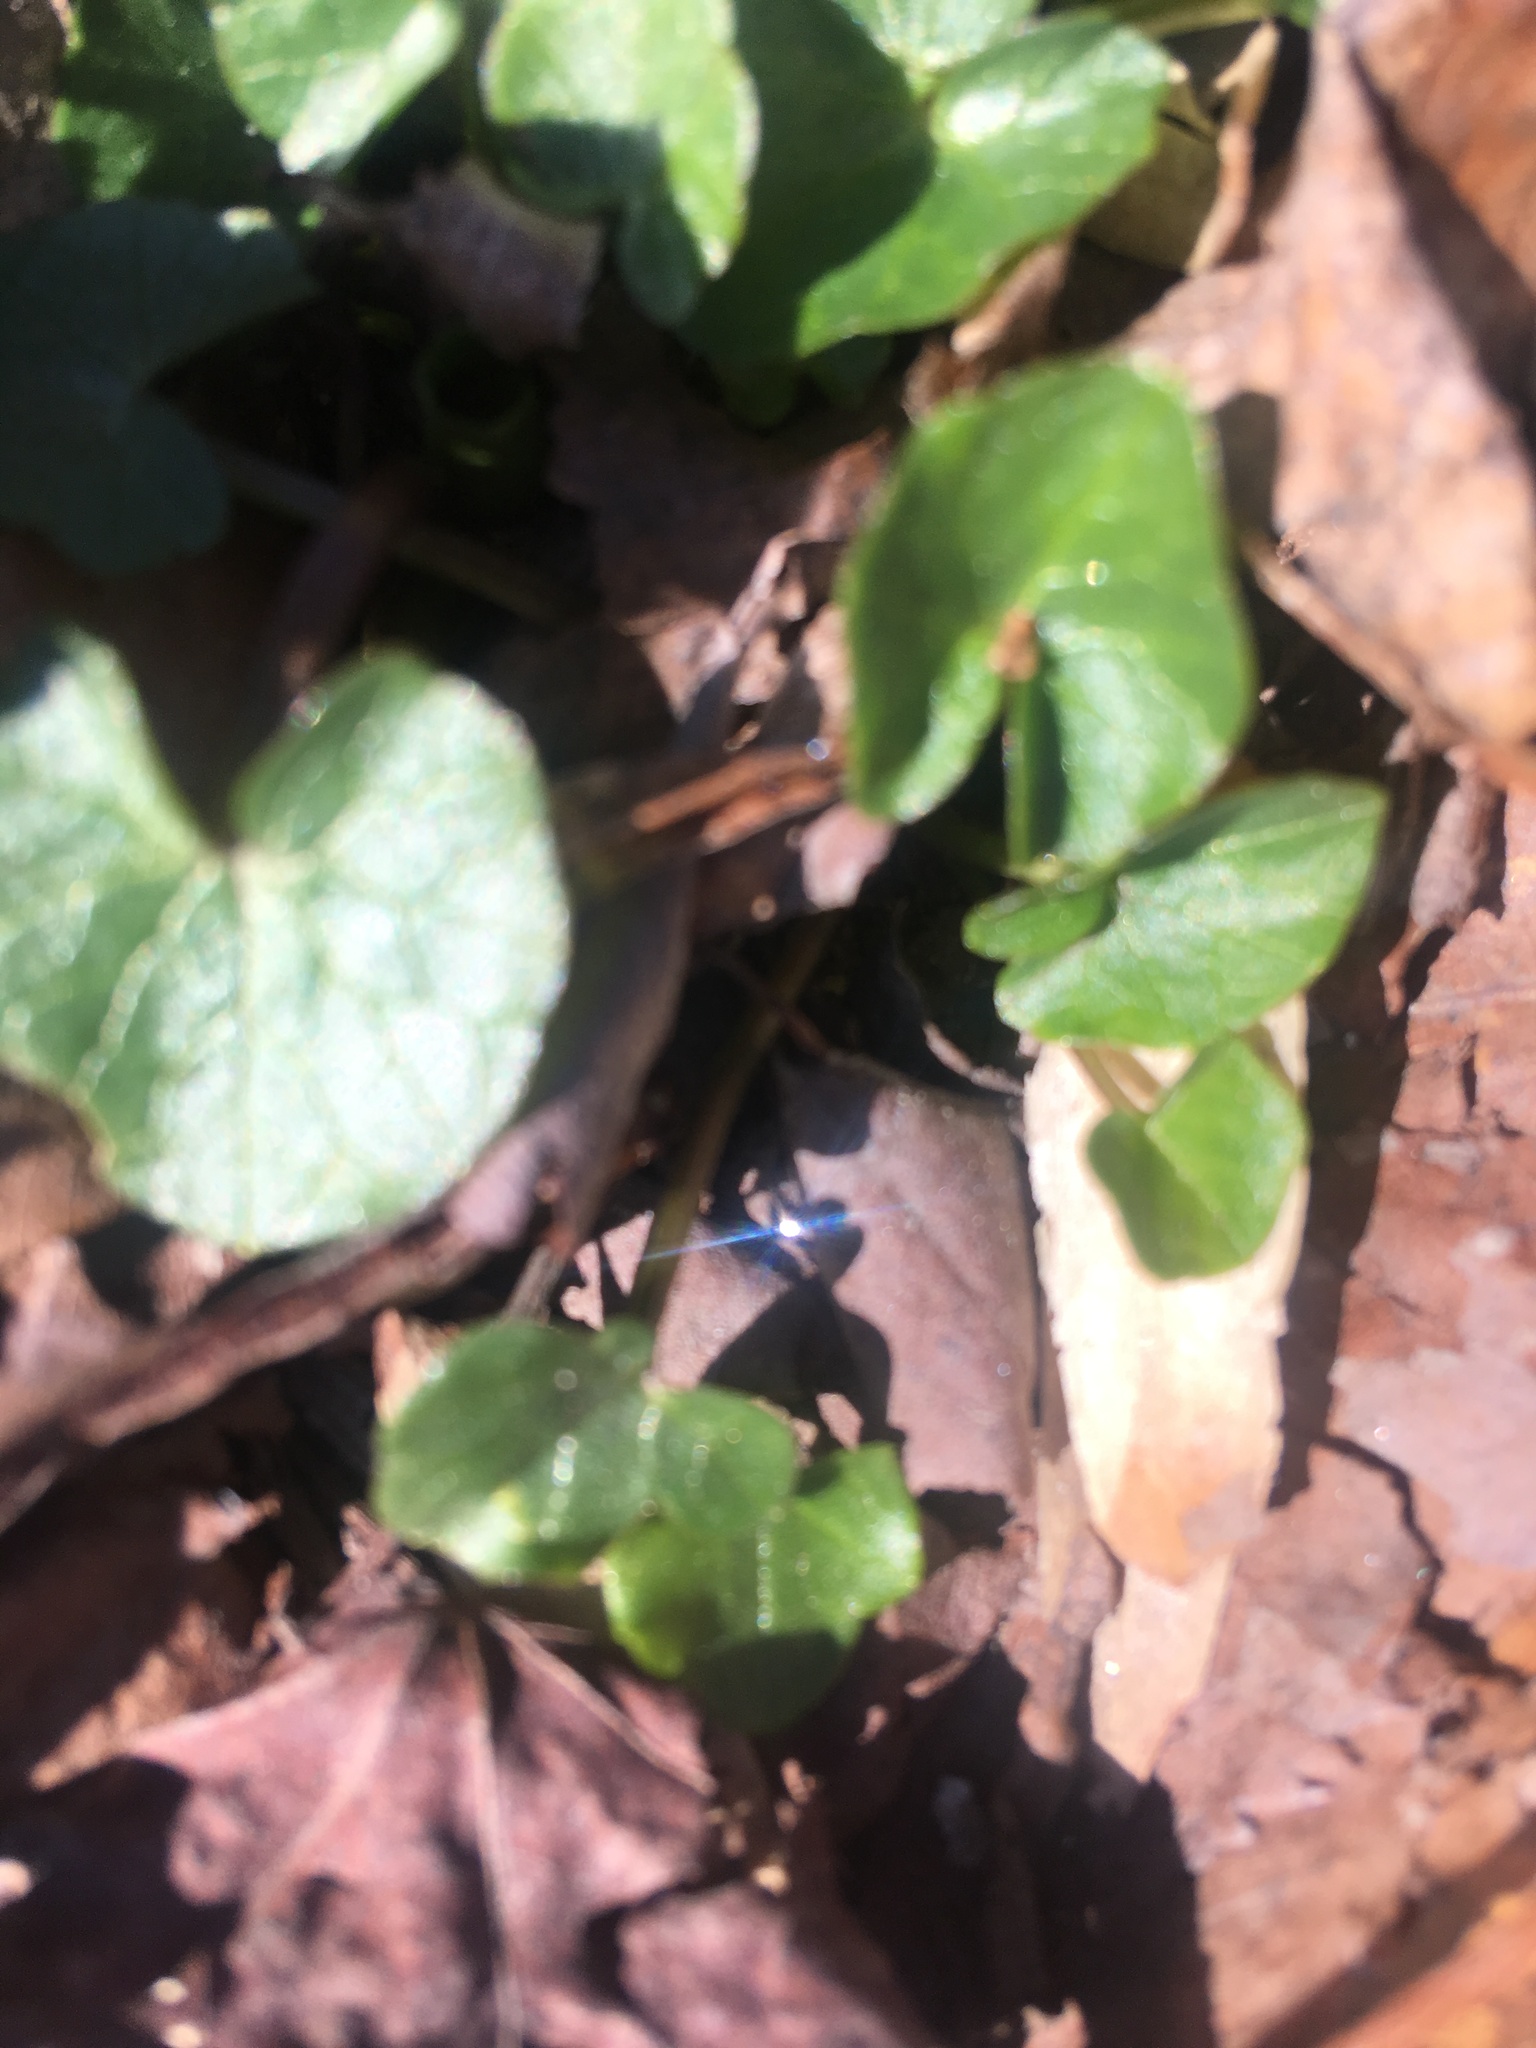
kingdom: Plantae
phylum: Tracheophyta
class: Magnoliopsida
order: Ranunculales
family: Ranunculaceae
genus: Ficaria
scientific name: Ficaria verna
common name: Lesser celandine
